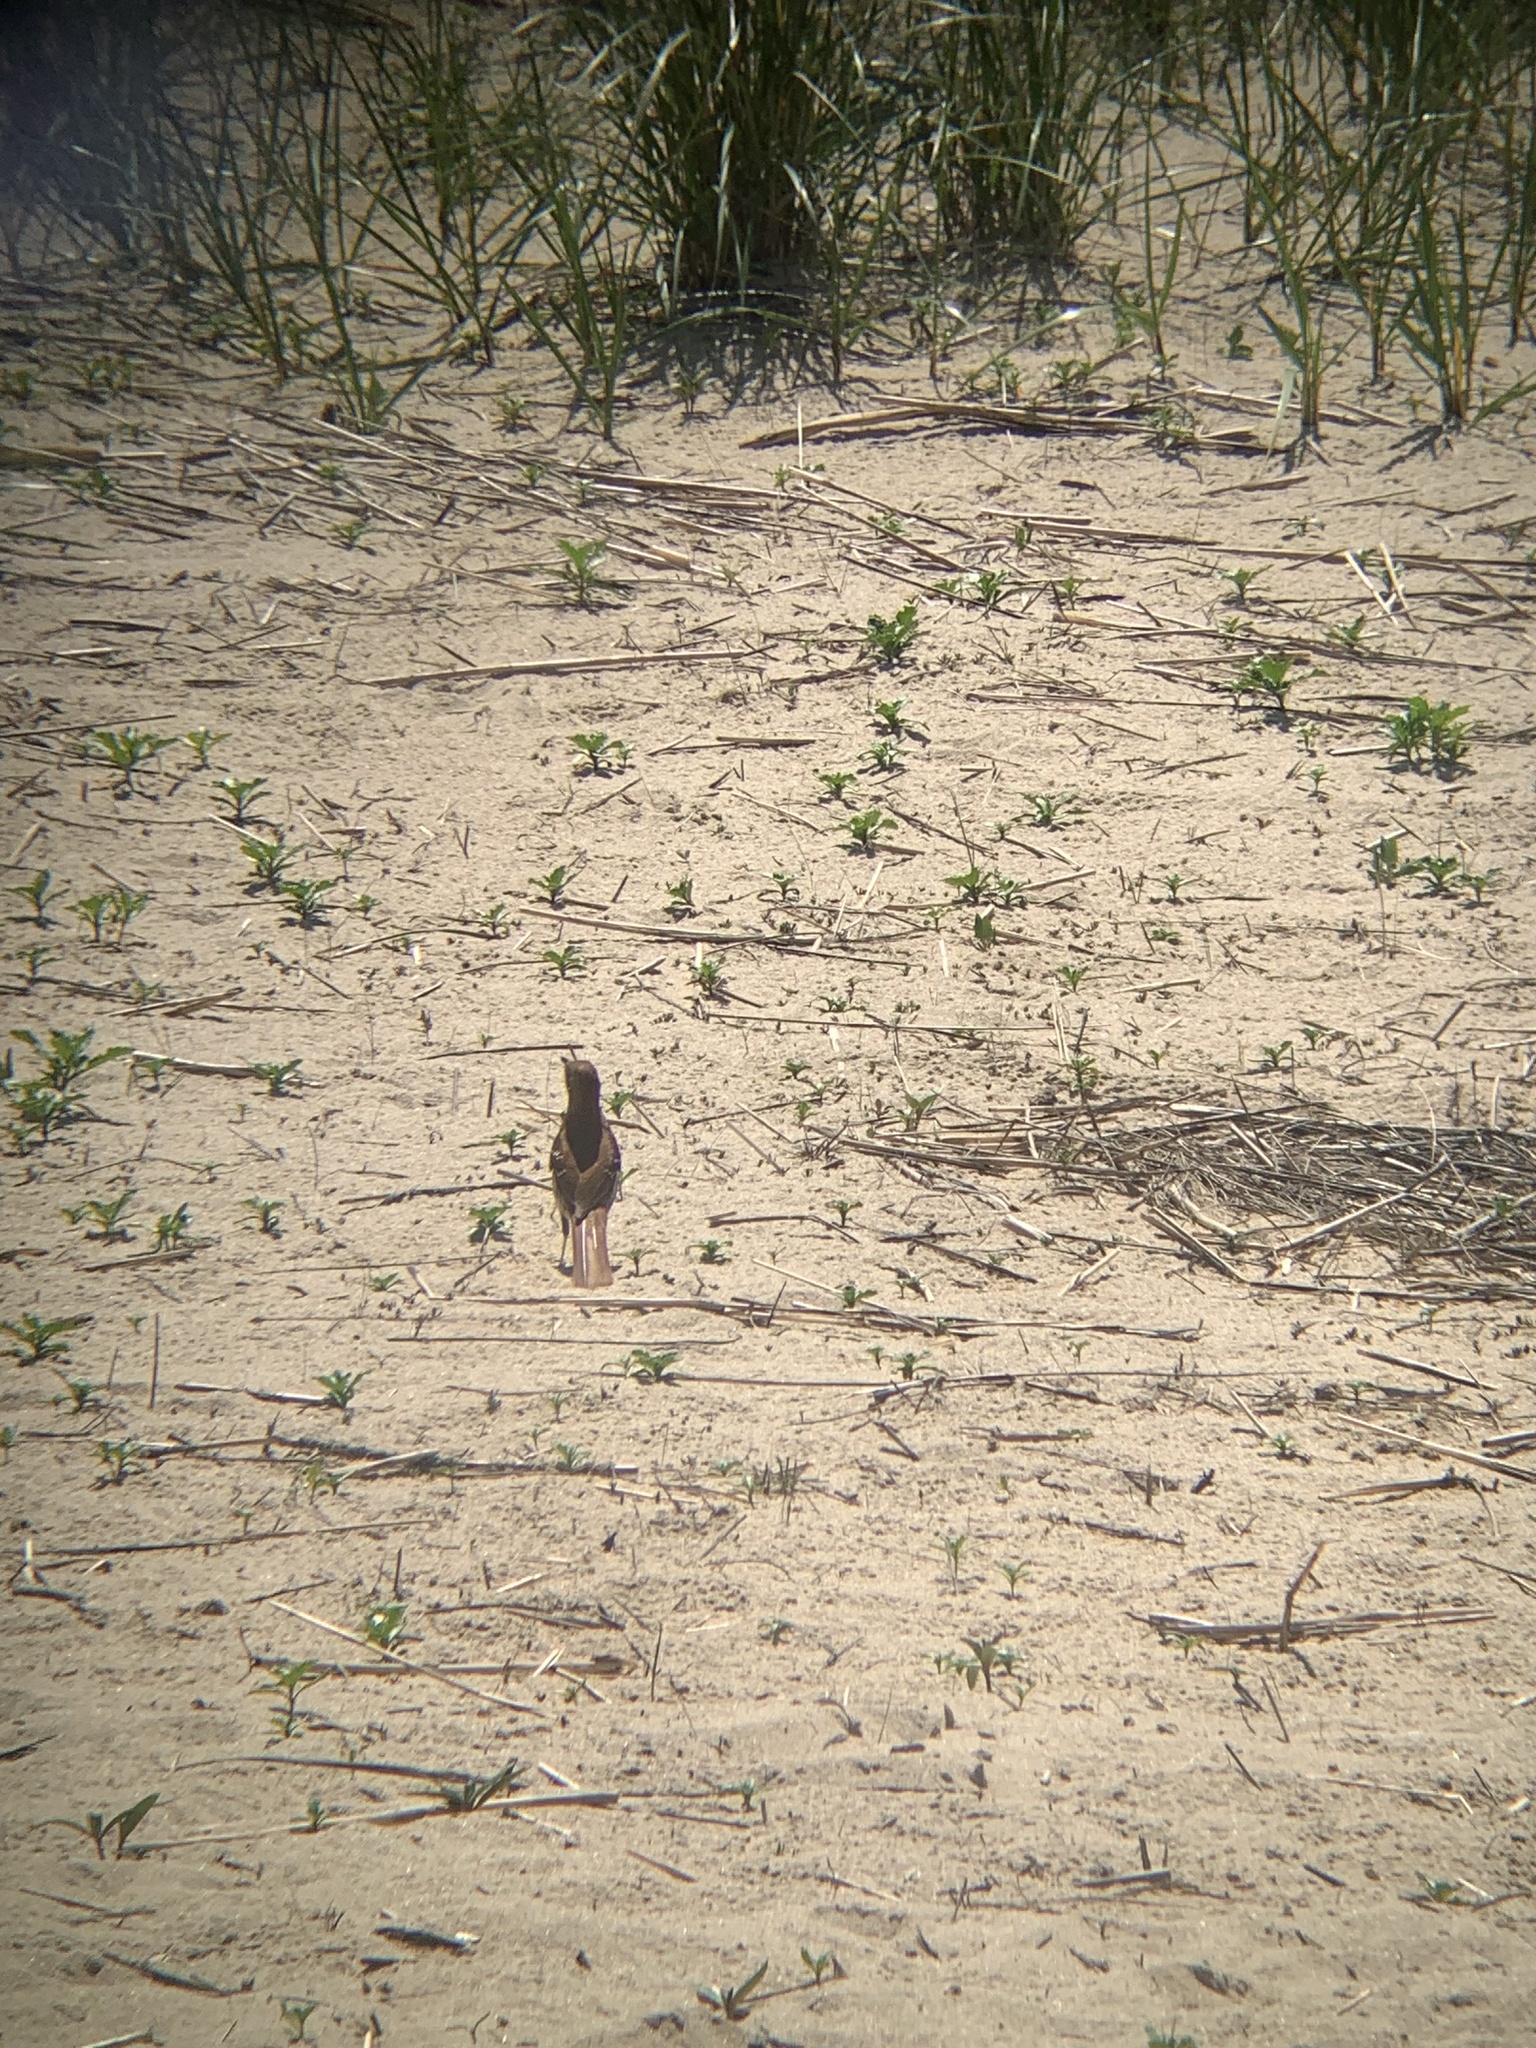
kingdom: Animalia
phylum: Chordata
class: Aves
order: Passeriformes
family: Mimidae
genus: Toxostoma
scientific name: Toxostoma rufum
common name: Brown thrasher
